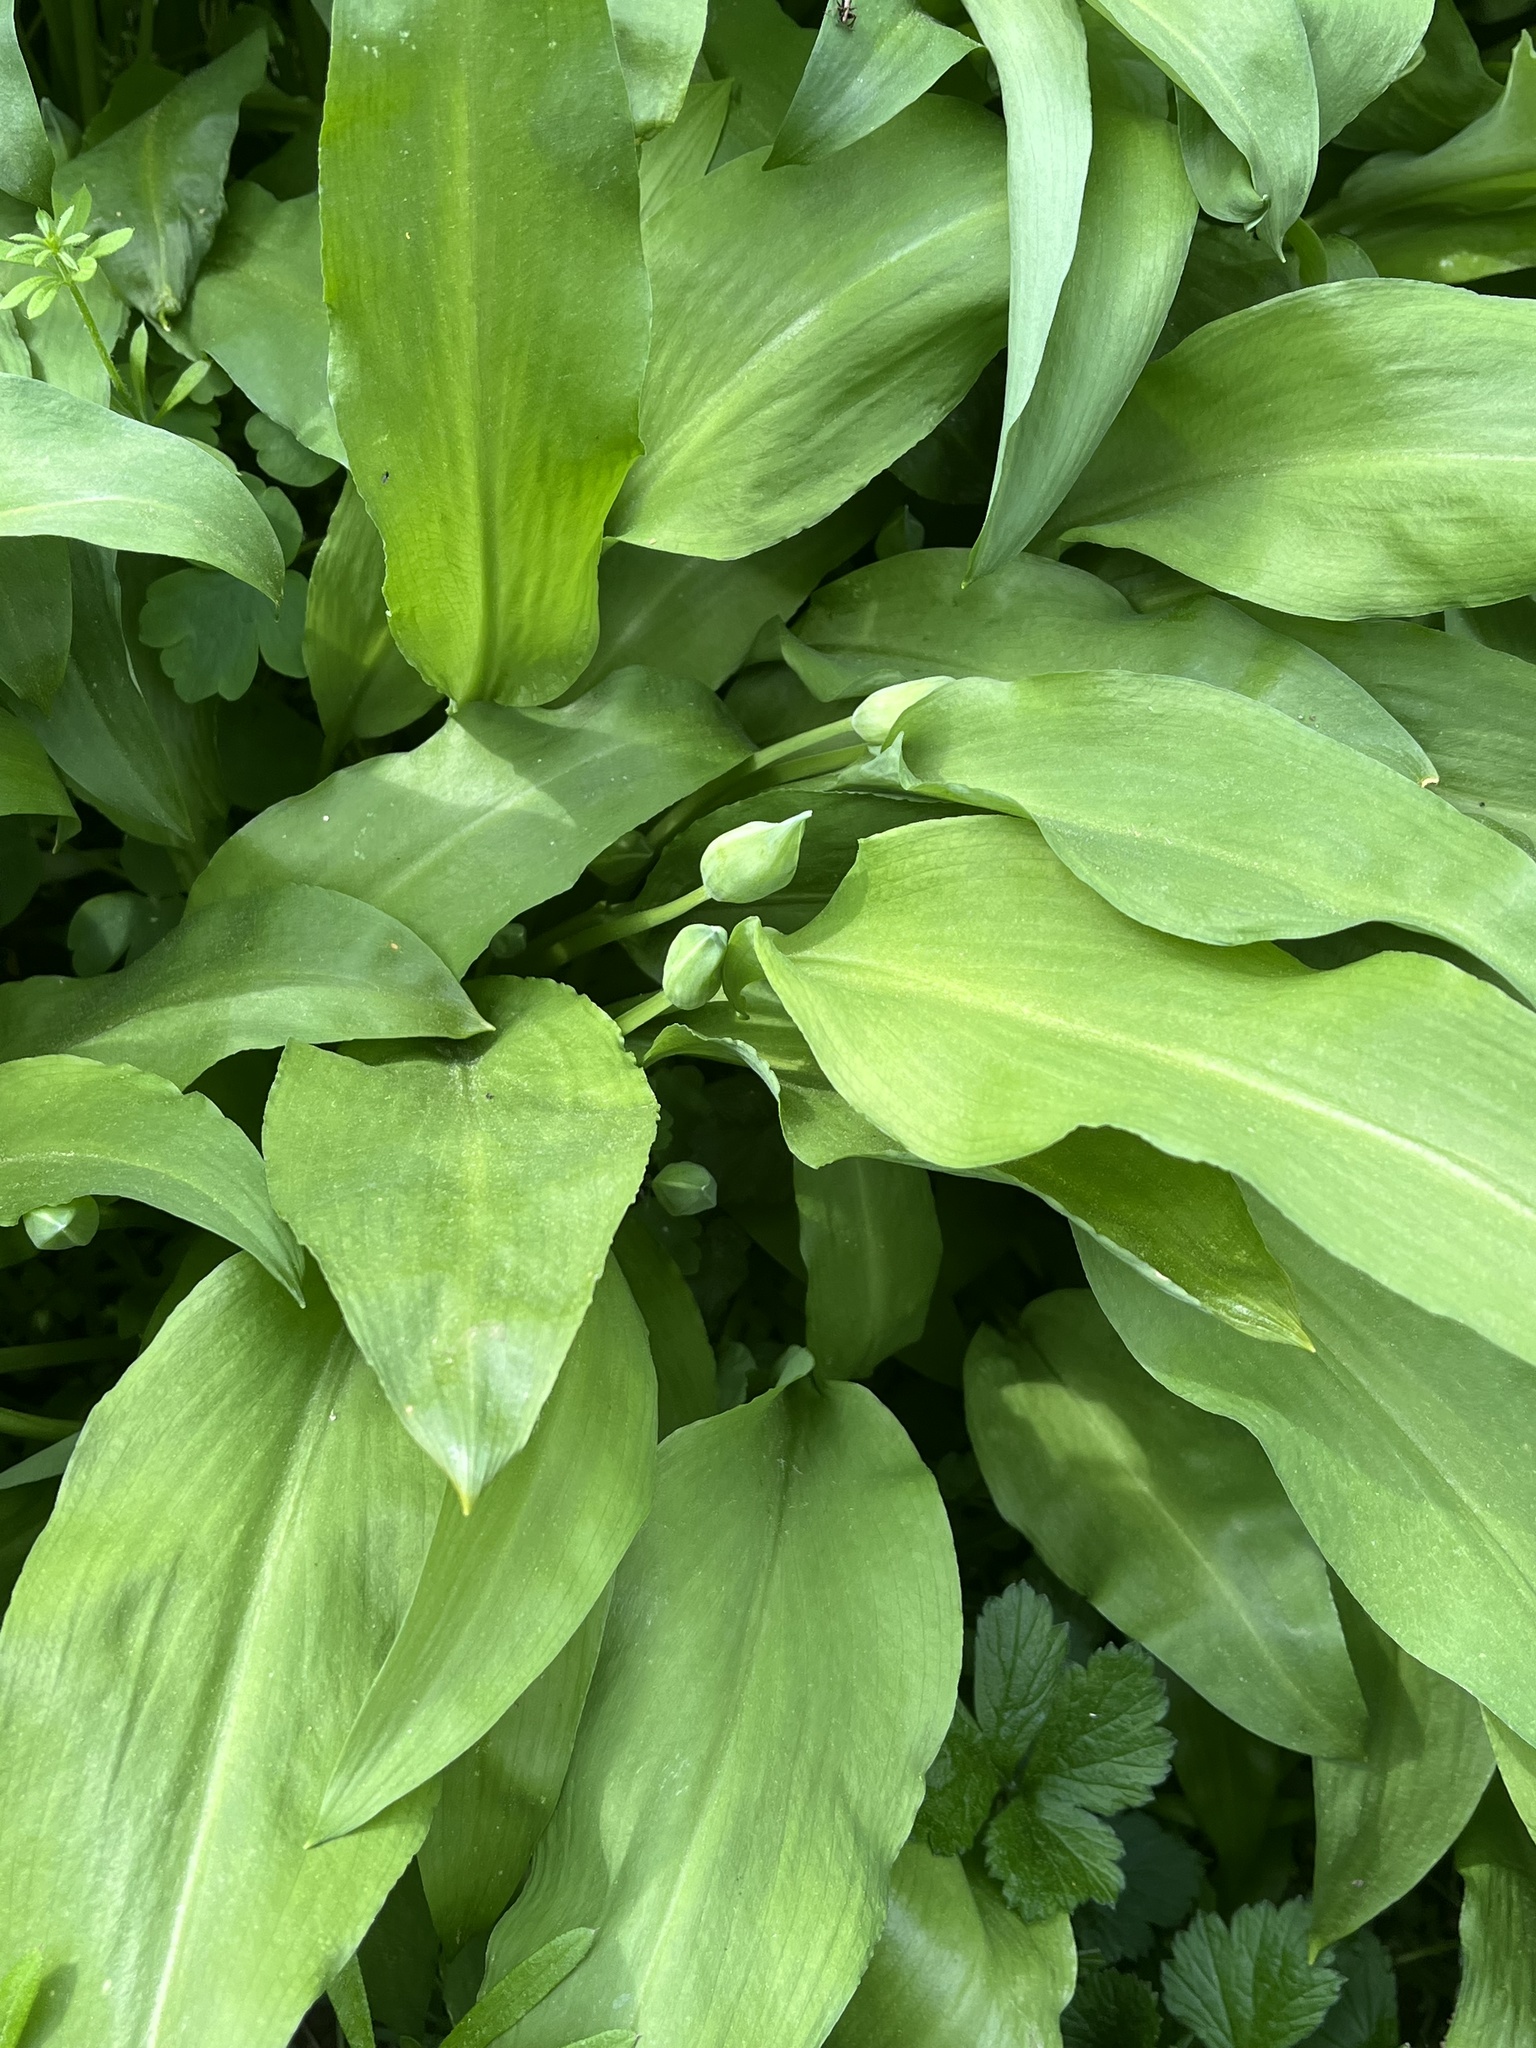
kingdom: Plantae
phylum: Tracheophyta
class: Liliopsida
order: Asparagales
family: Amaryllidaceae
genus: Allium
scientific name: Allium ursinum
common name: Ramsons
